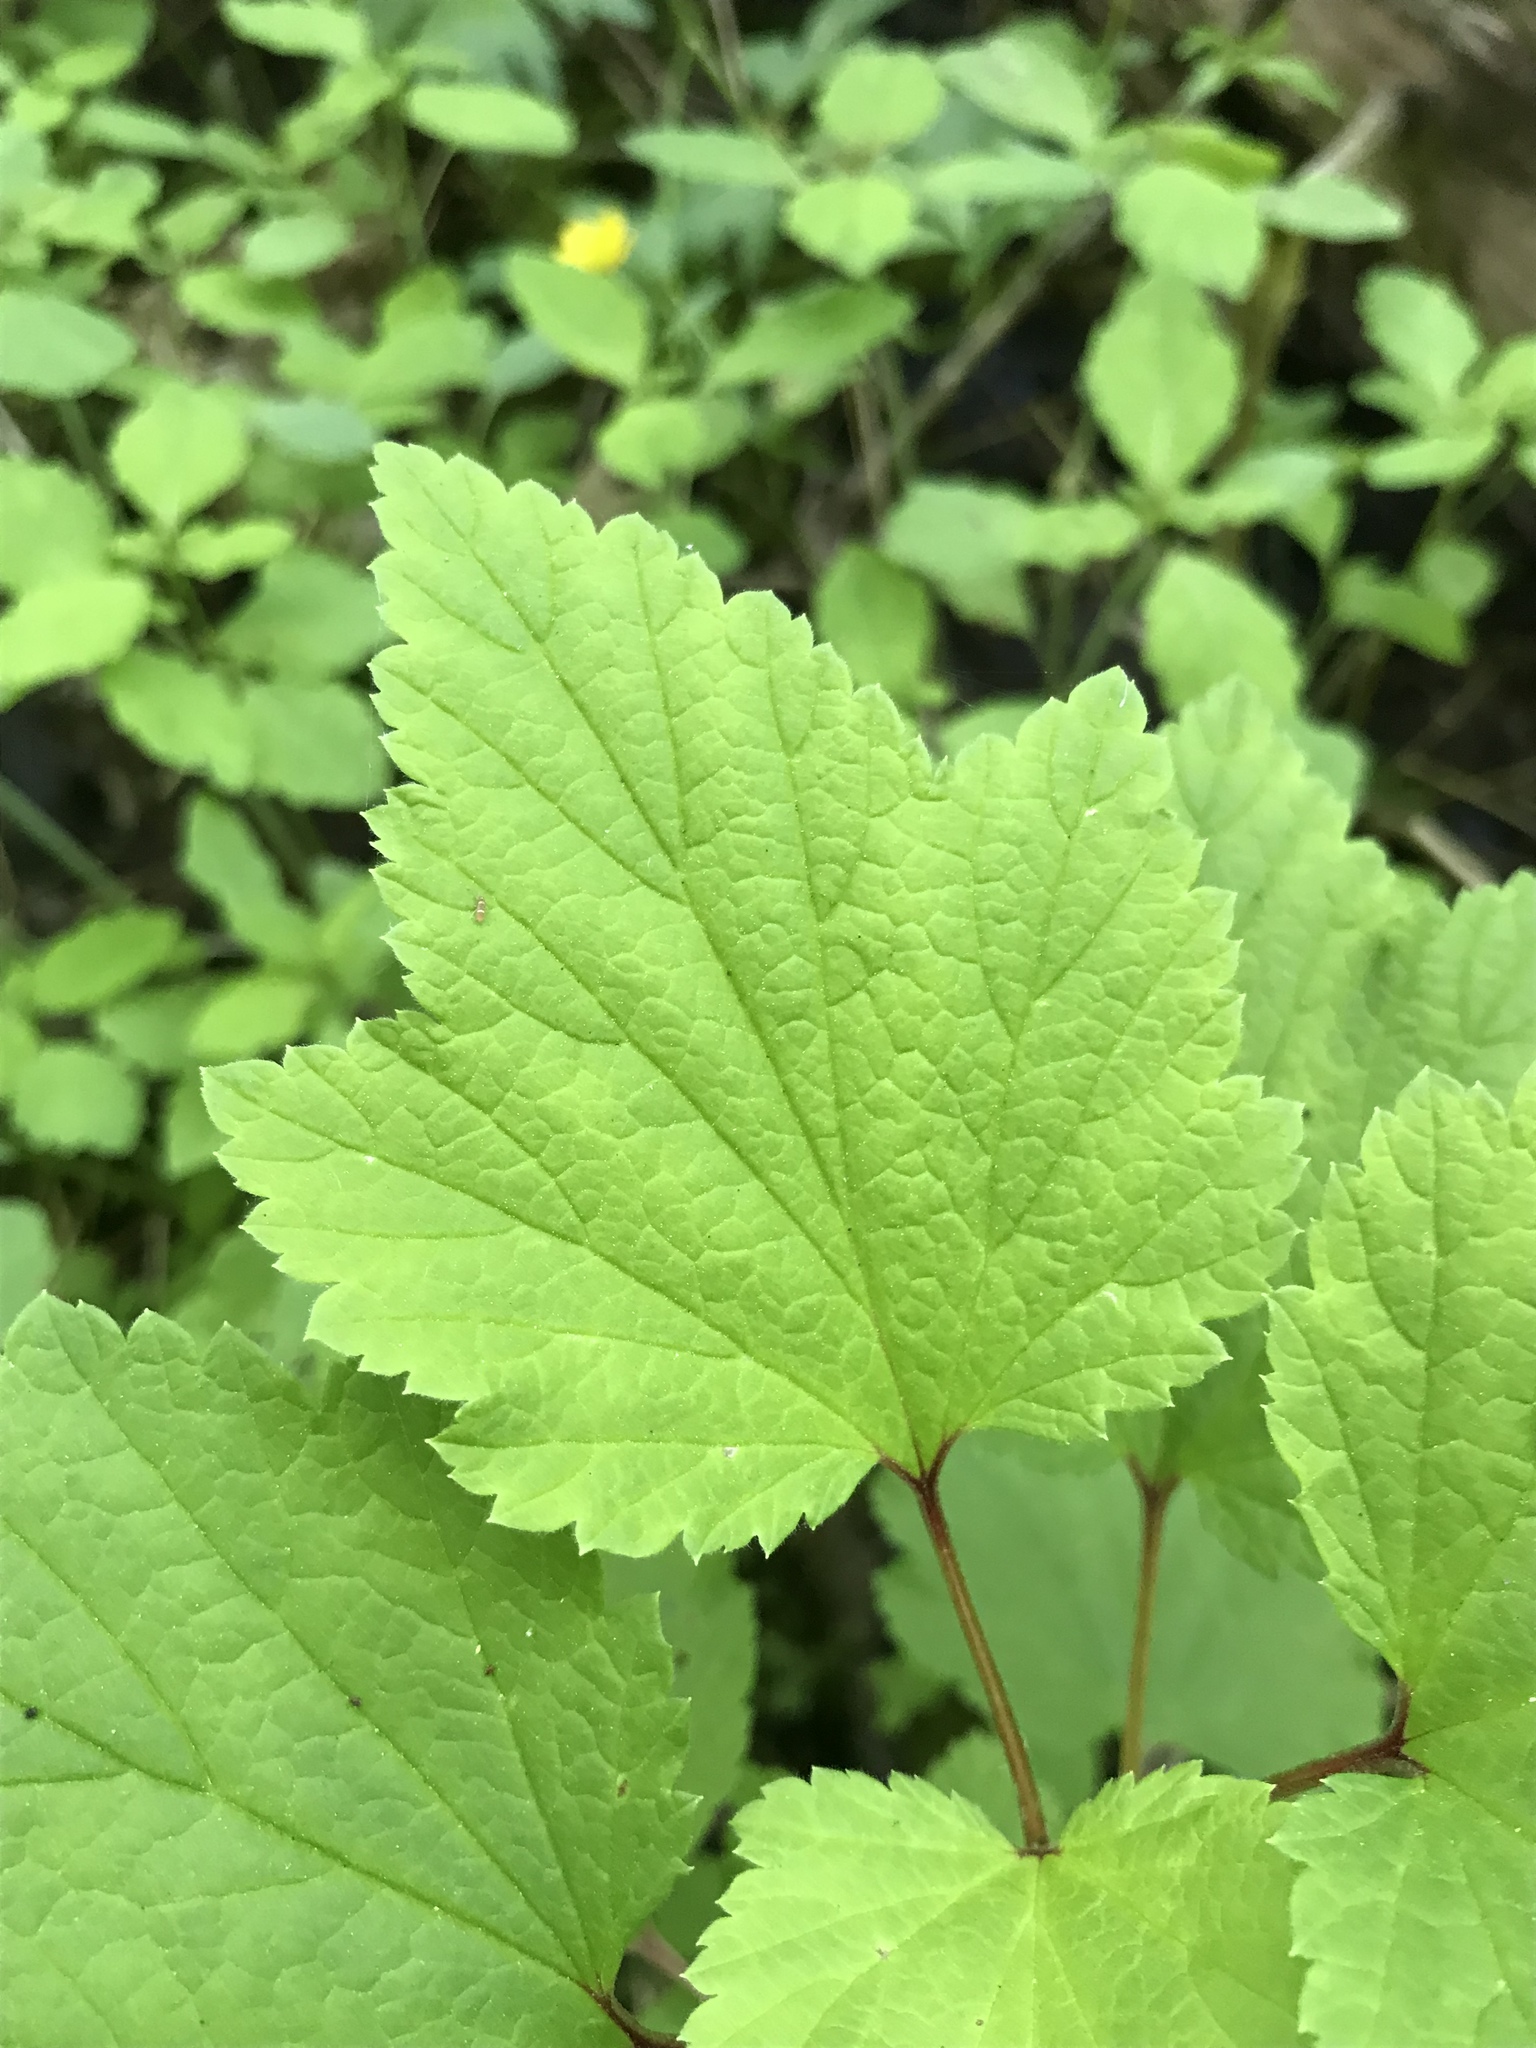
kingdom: Plantae
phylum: Tracheophyta
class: Magnoliopsida
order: Saxifragales
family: Grossulariaceae
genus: Ribes
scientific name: Ribes triste
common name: Swamp red currant
